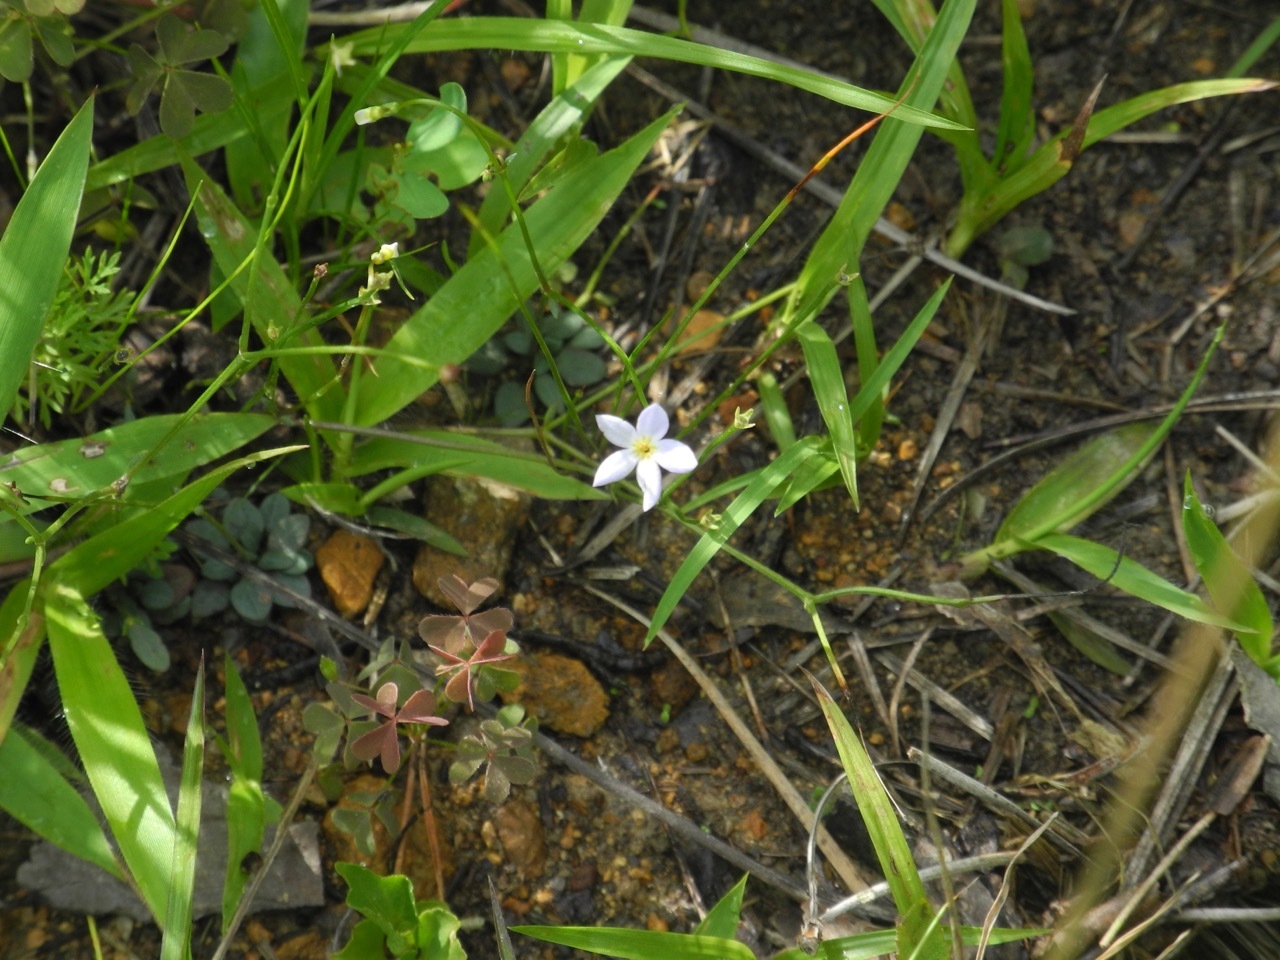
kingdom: Plantae
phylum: Tracheophyta
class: Magnoliopsida
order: Gentianales
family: Rubiaceae
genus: Houstonia
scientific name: Houstonia caerulea
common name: Bluets
